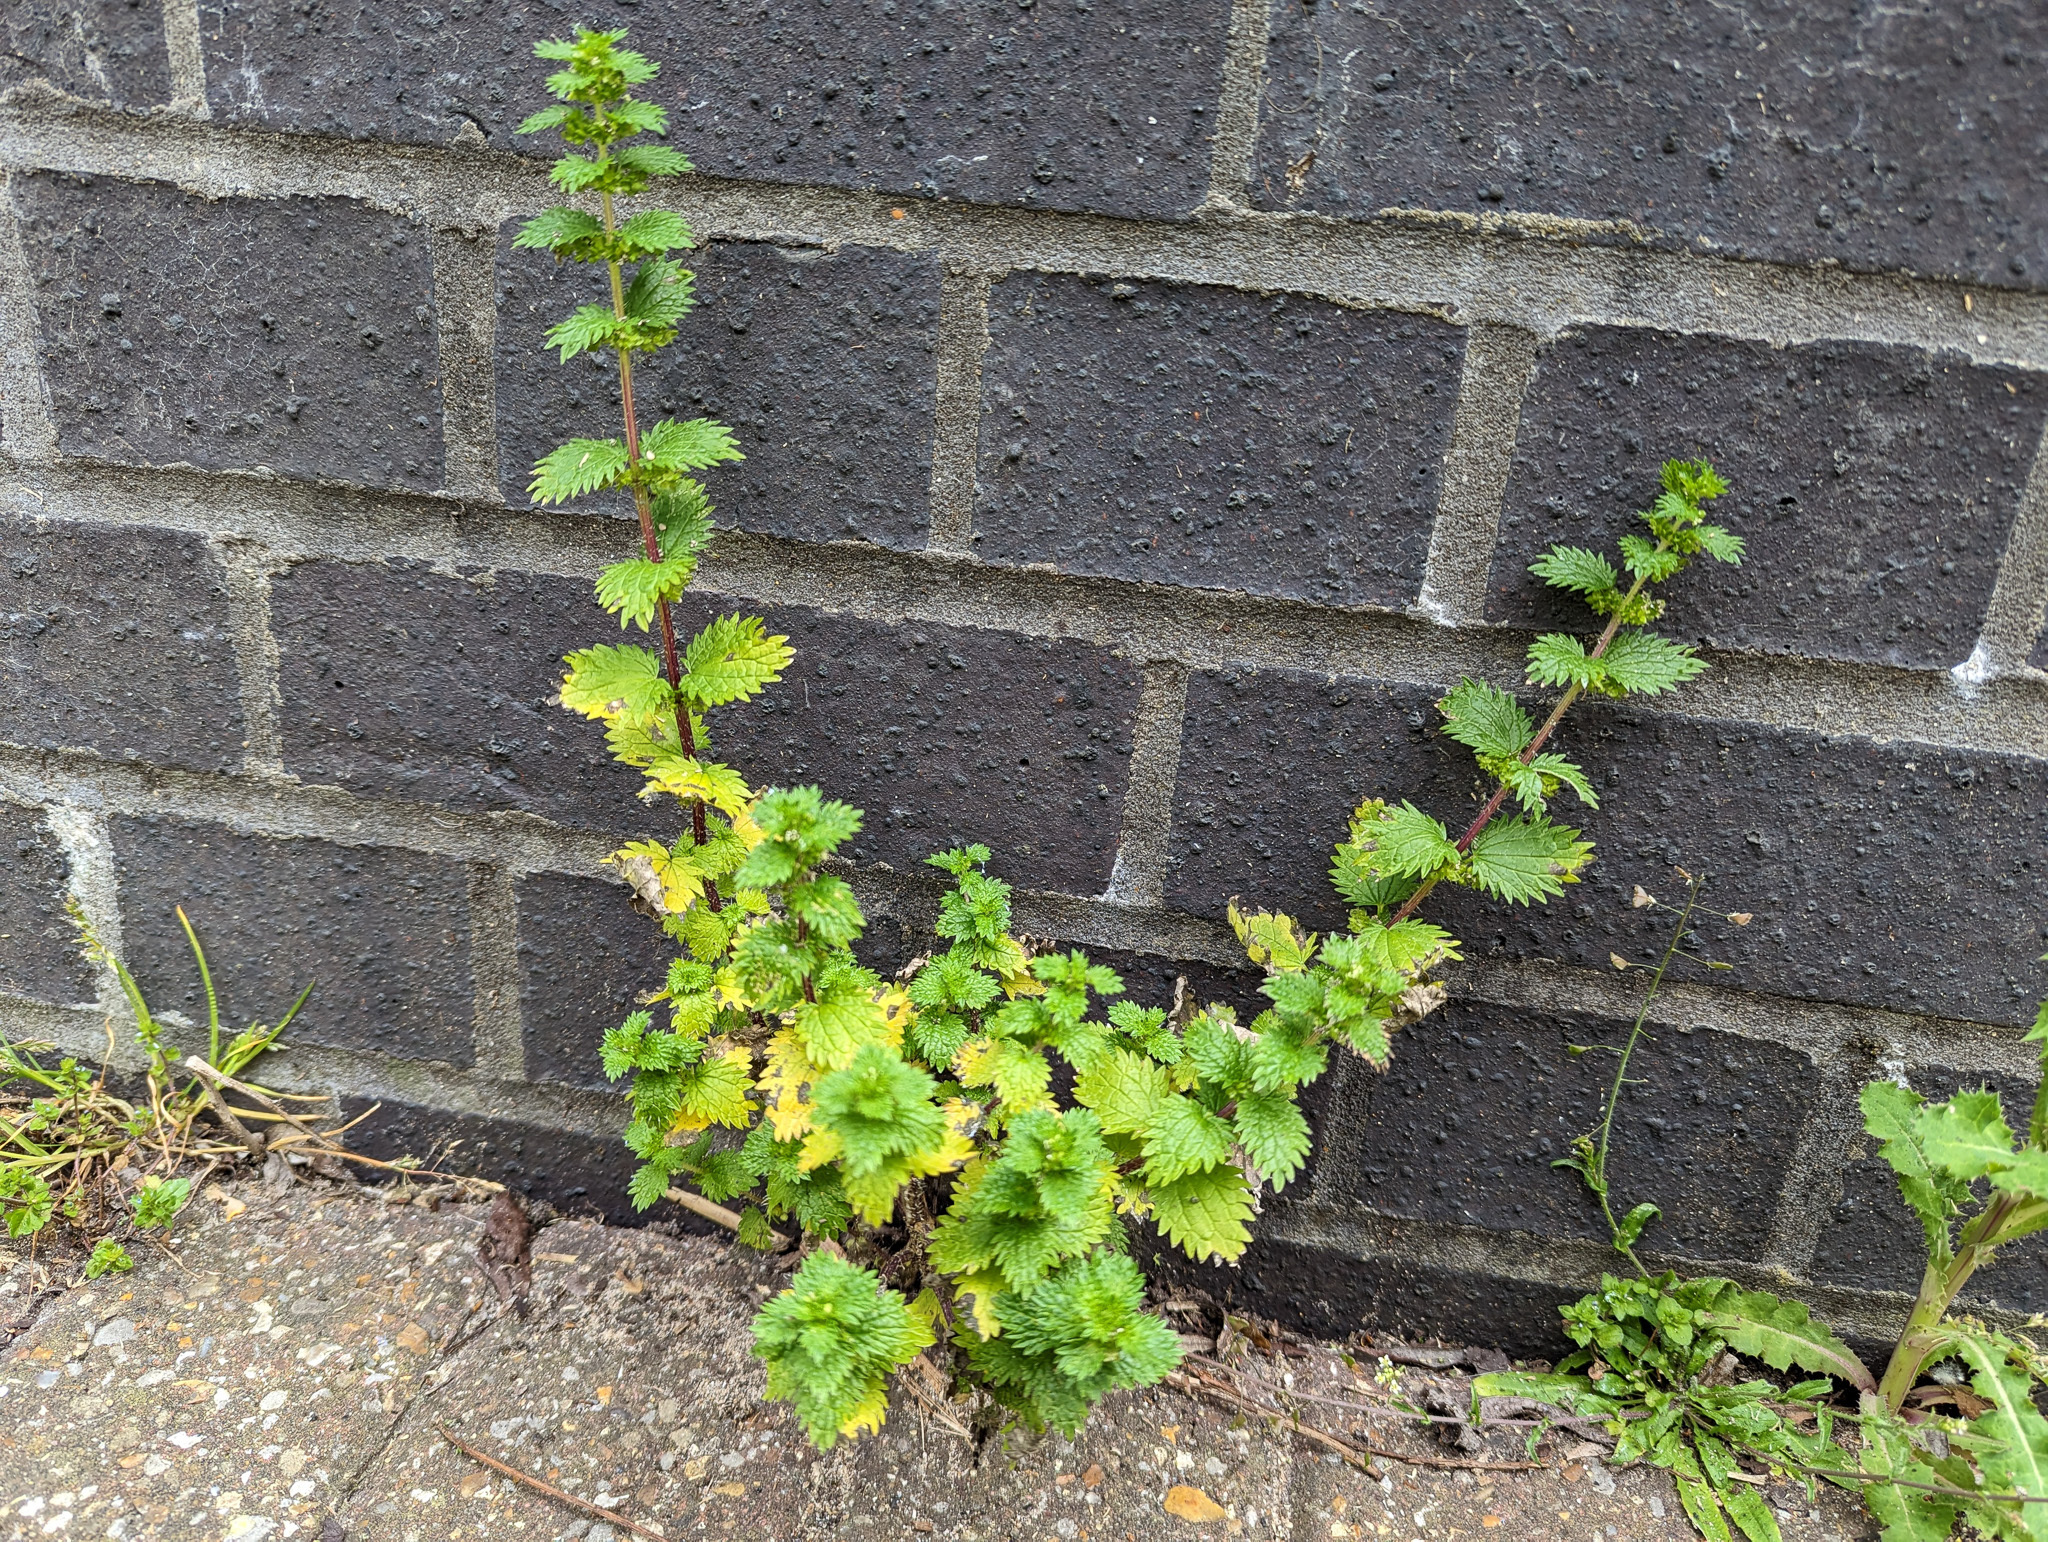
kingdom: Plantae
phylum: Tracheophyta
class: Magnoliopsida
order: Rosales
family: Urticaceae
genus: Urtica
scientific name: Urtica urens
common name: Dwarf nettle
